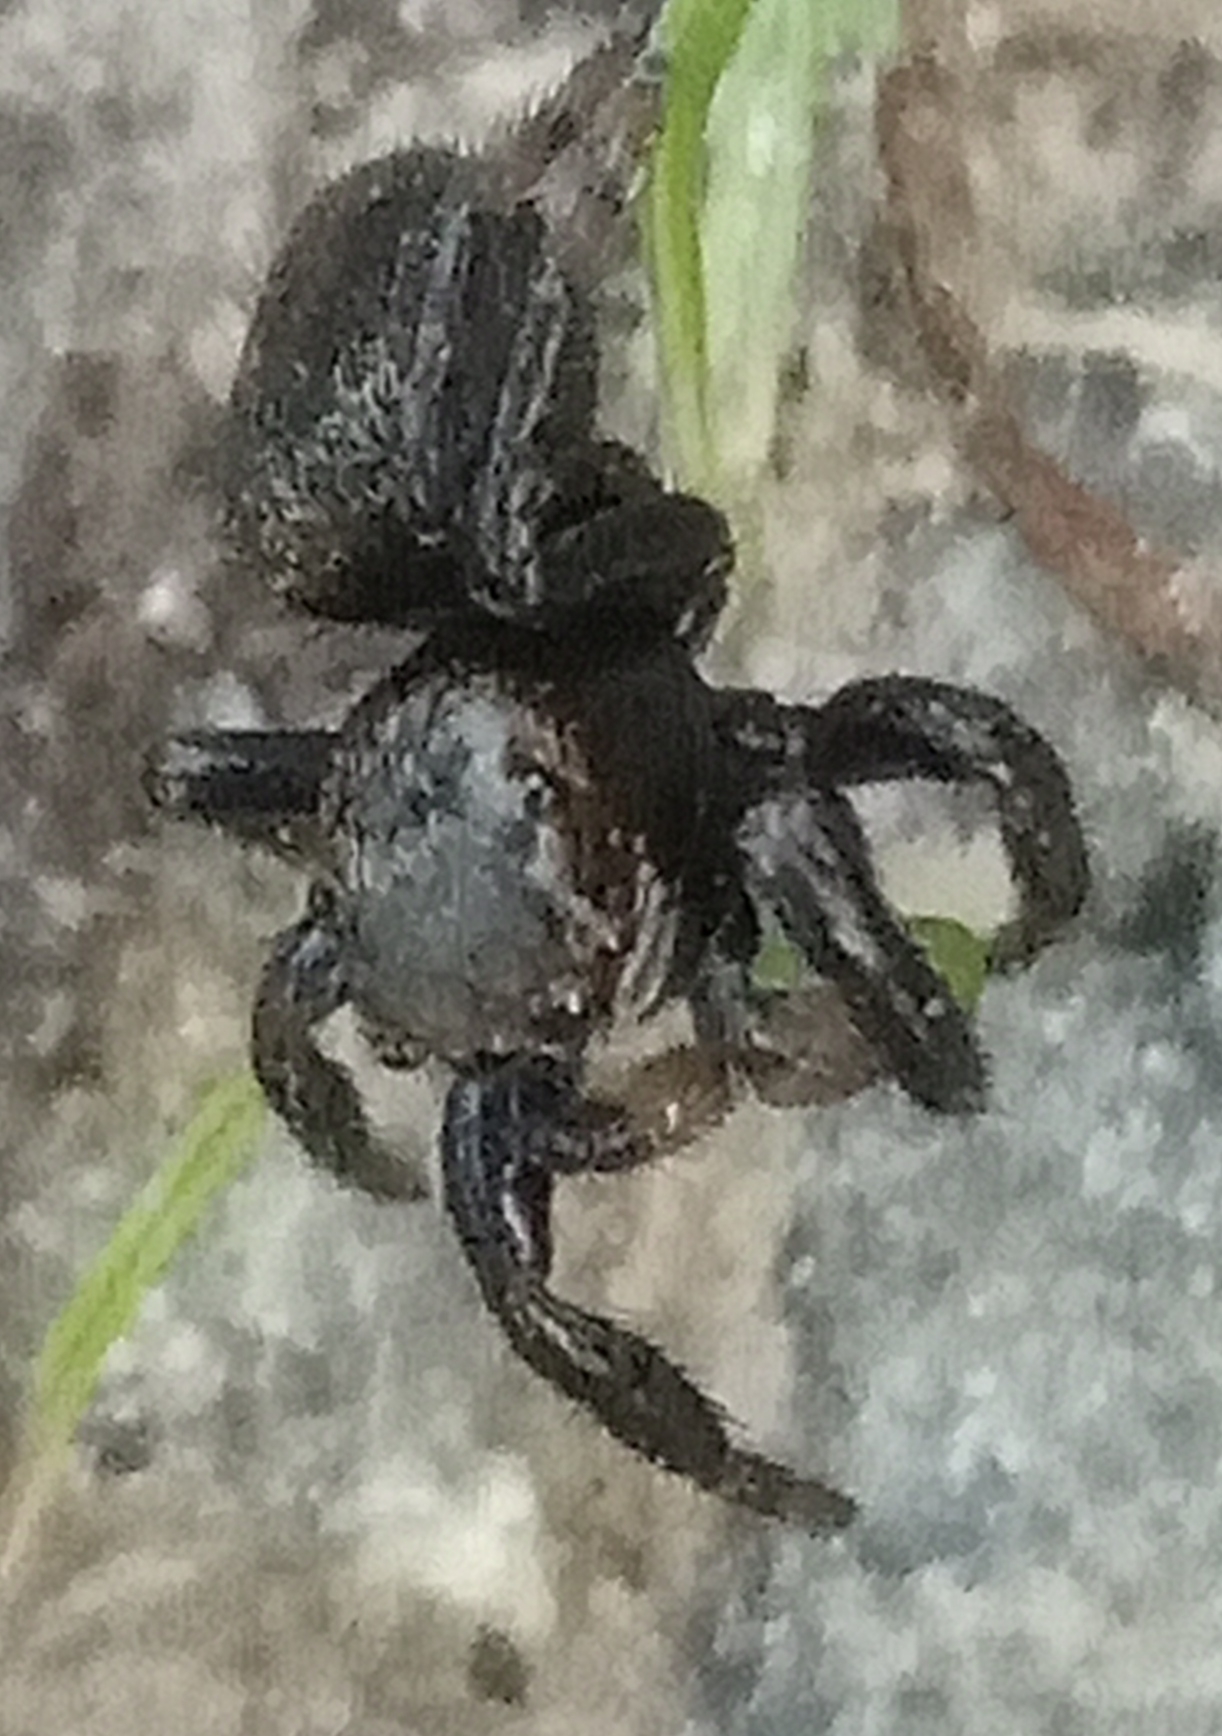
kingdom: Animalia
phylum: Arthropoda
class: Arachnida
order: Araneae
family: Salticidae
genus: Evarcha
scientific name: Evarcha arcuata
